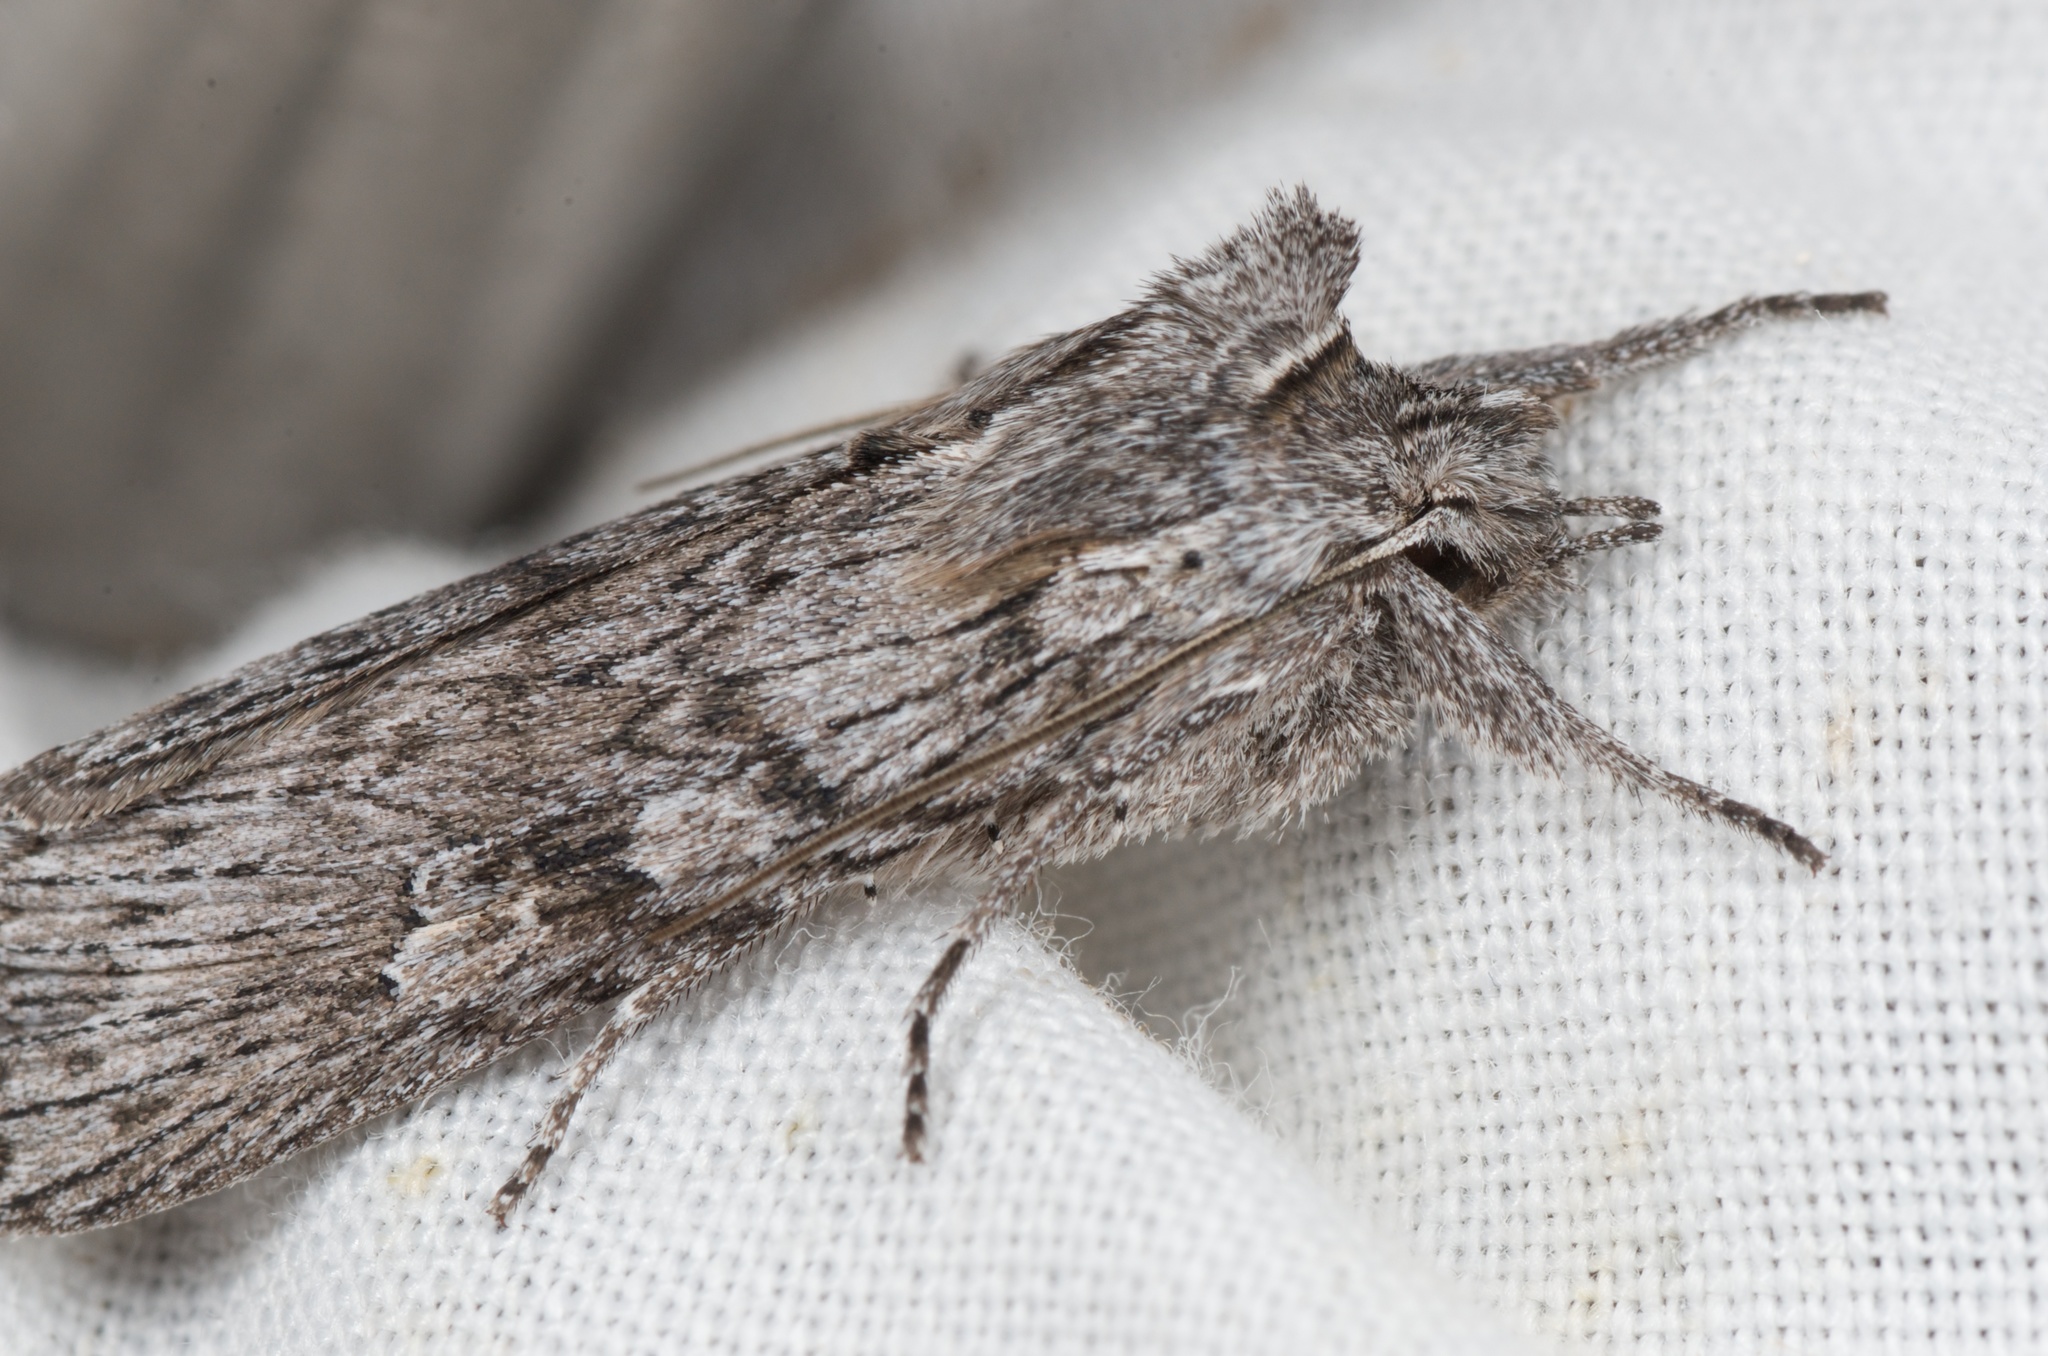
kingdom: Animalia
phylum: Arthropoda
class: Insecta
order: Lepidoptera
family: Noctuidae
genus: Physetica
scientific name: Physetica phricias
